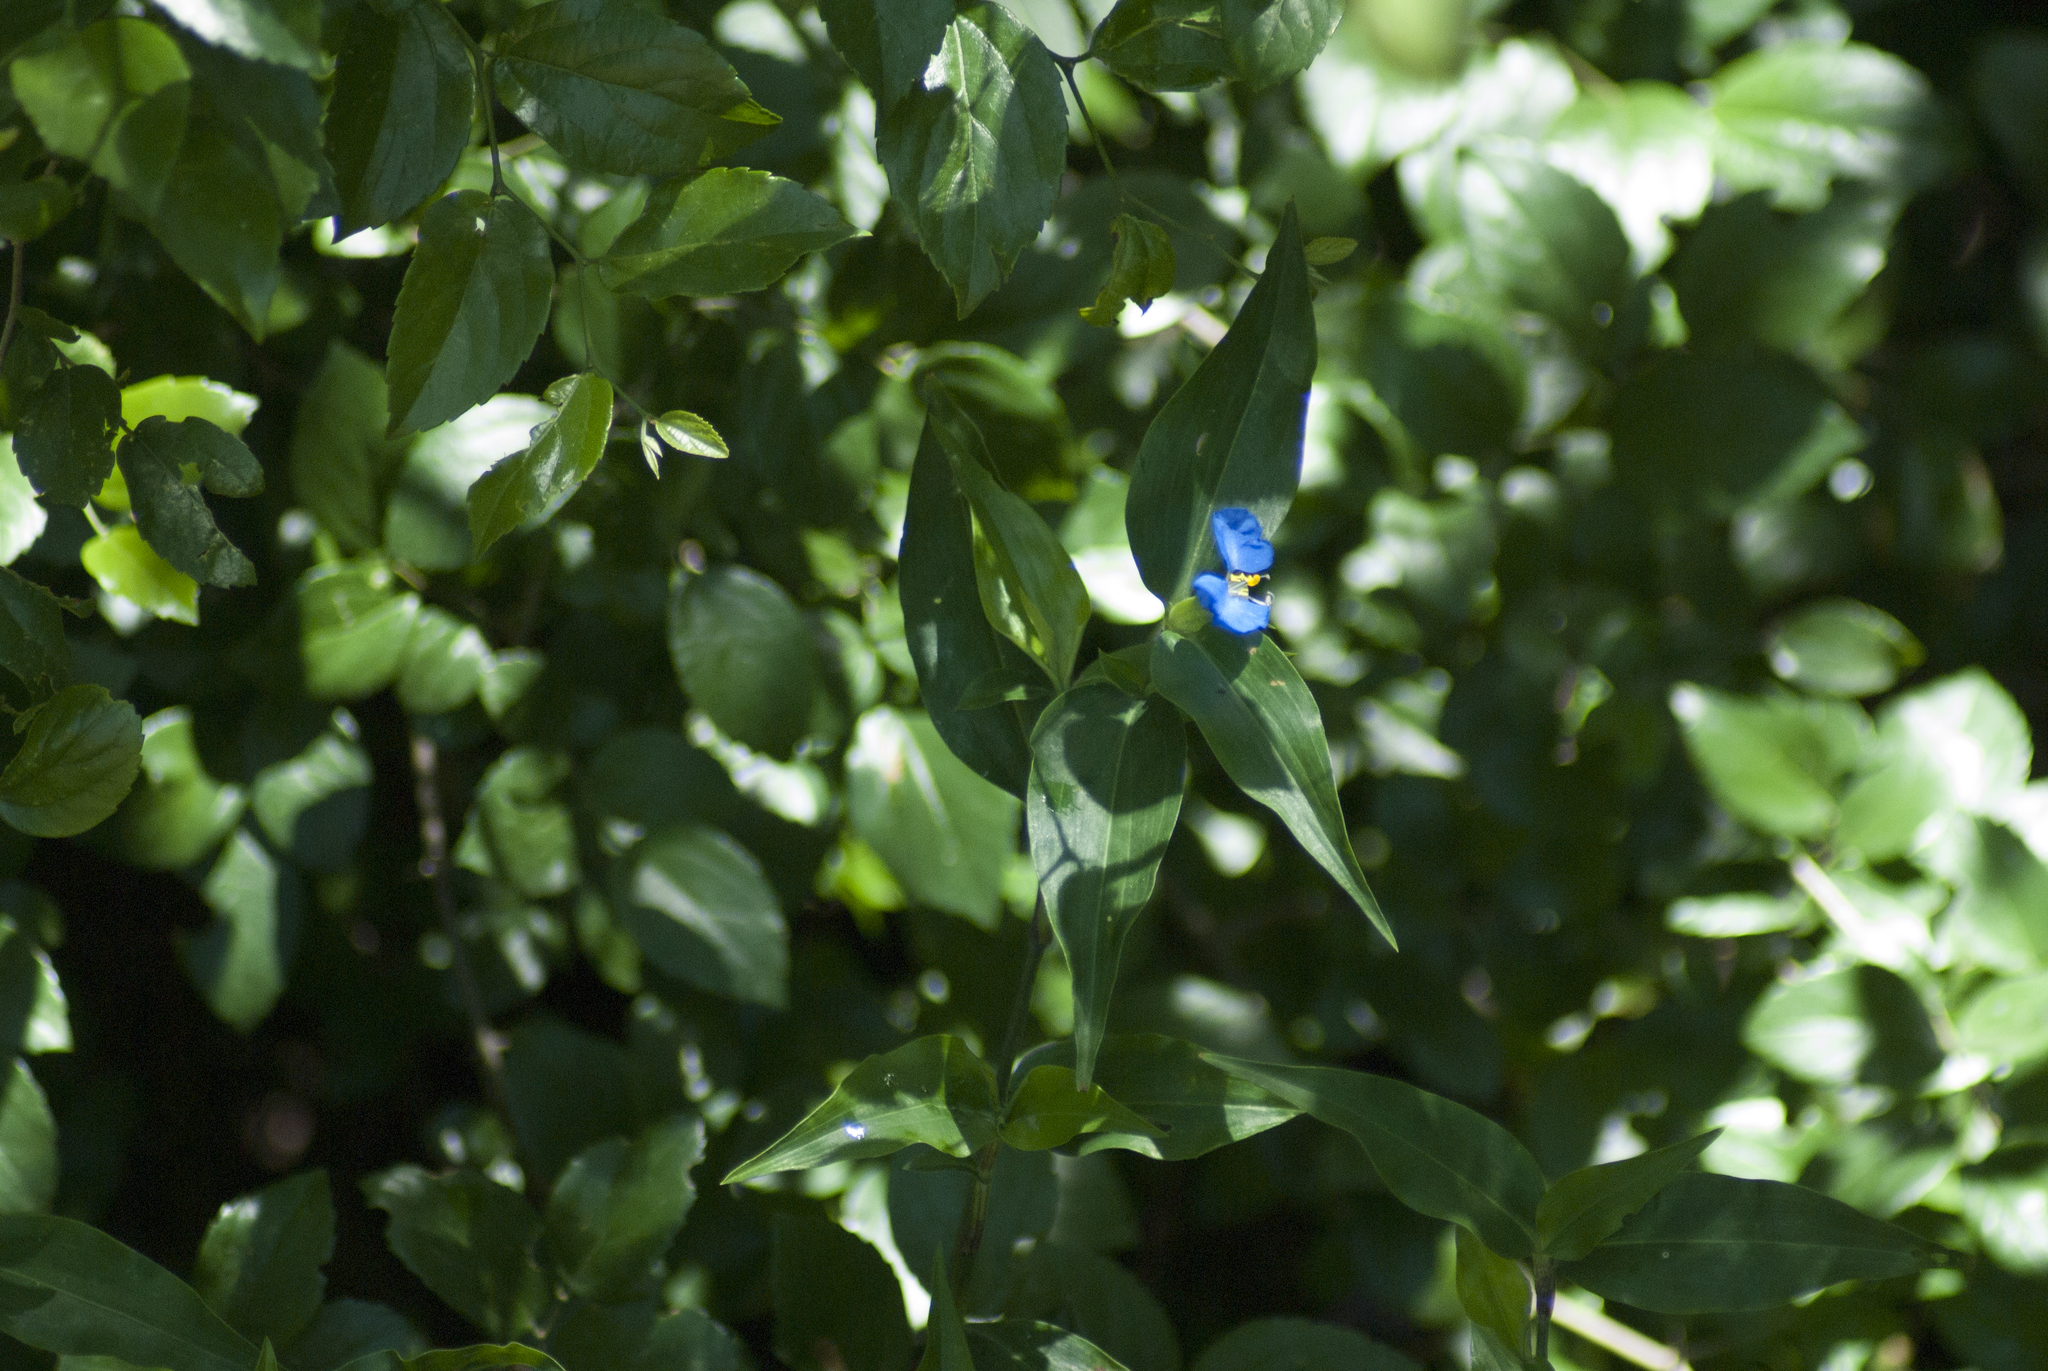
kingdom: Plantae
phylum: Tracheophyta
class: Liliopsida
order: Commelinales
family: Commelinaceae
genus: Commelina
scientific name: Commelina erecta
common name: Blousel blommetjie
